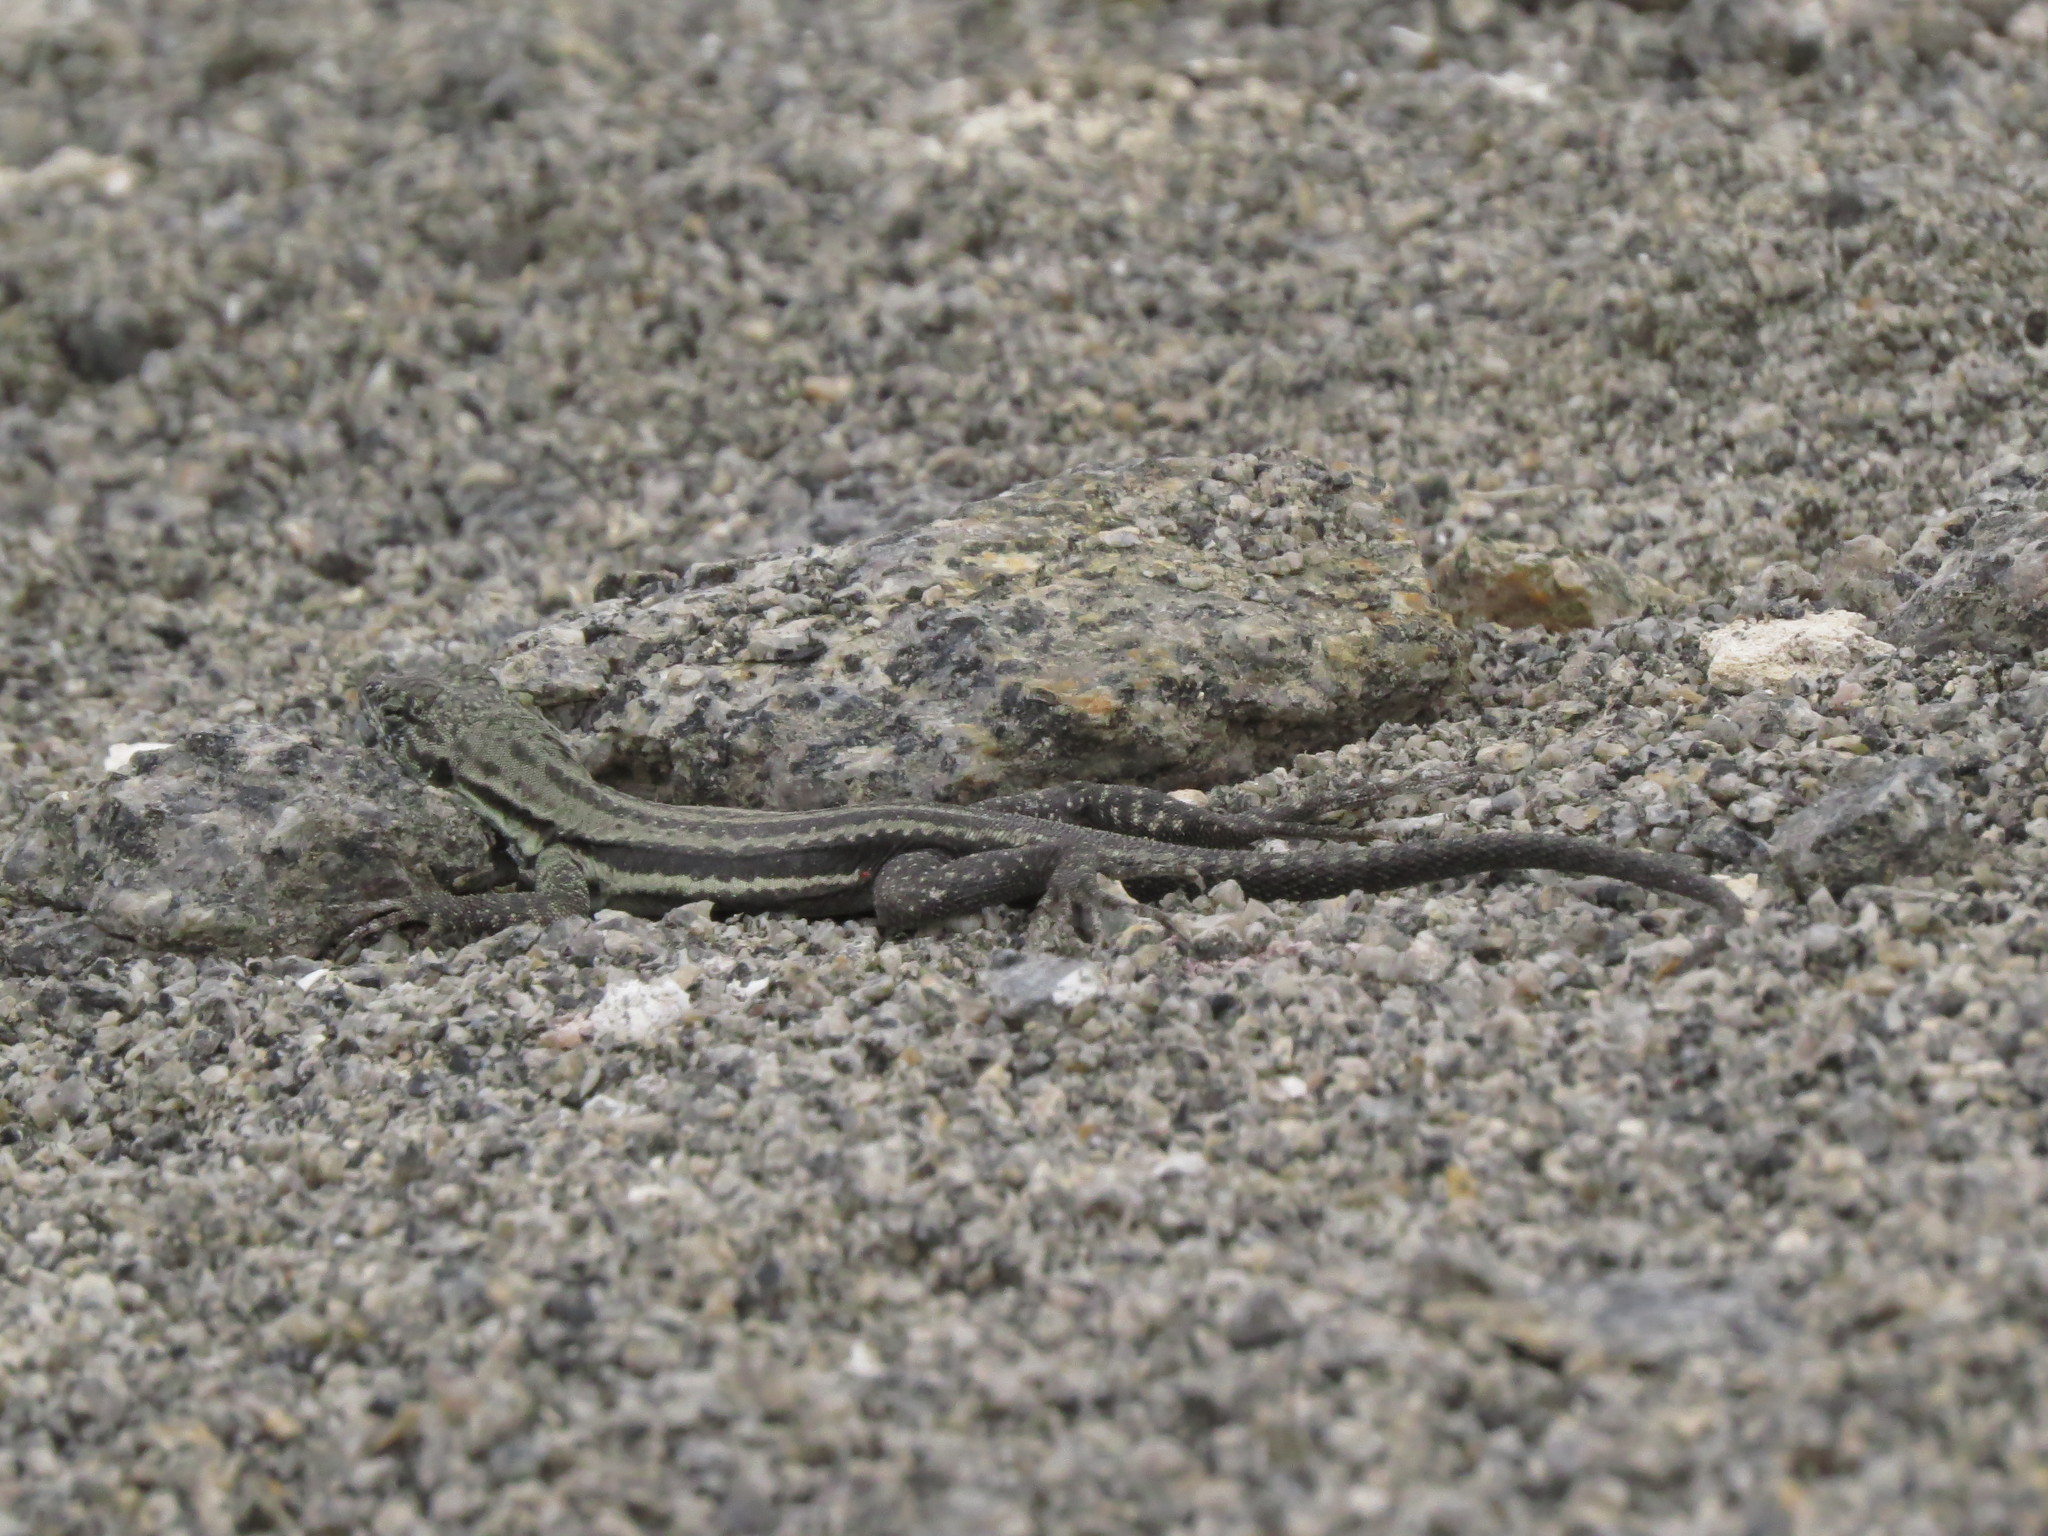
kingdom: Animalia
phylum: Chordata
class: Squamata
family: Tropiduridae
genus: Microlophus
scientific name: Microlophus quadrivittatus
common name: Four-banded pacific iguana
